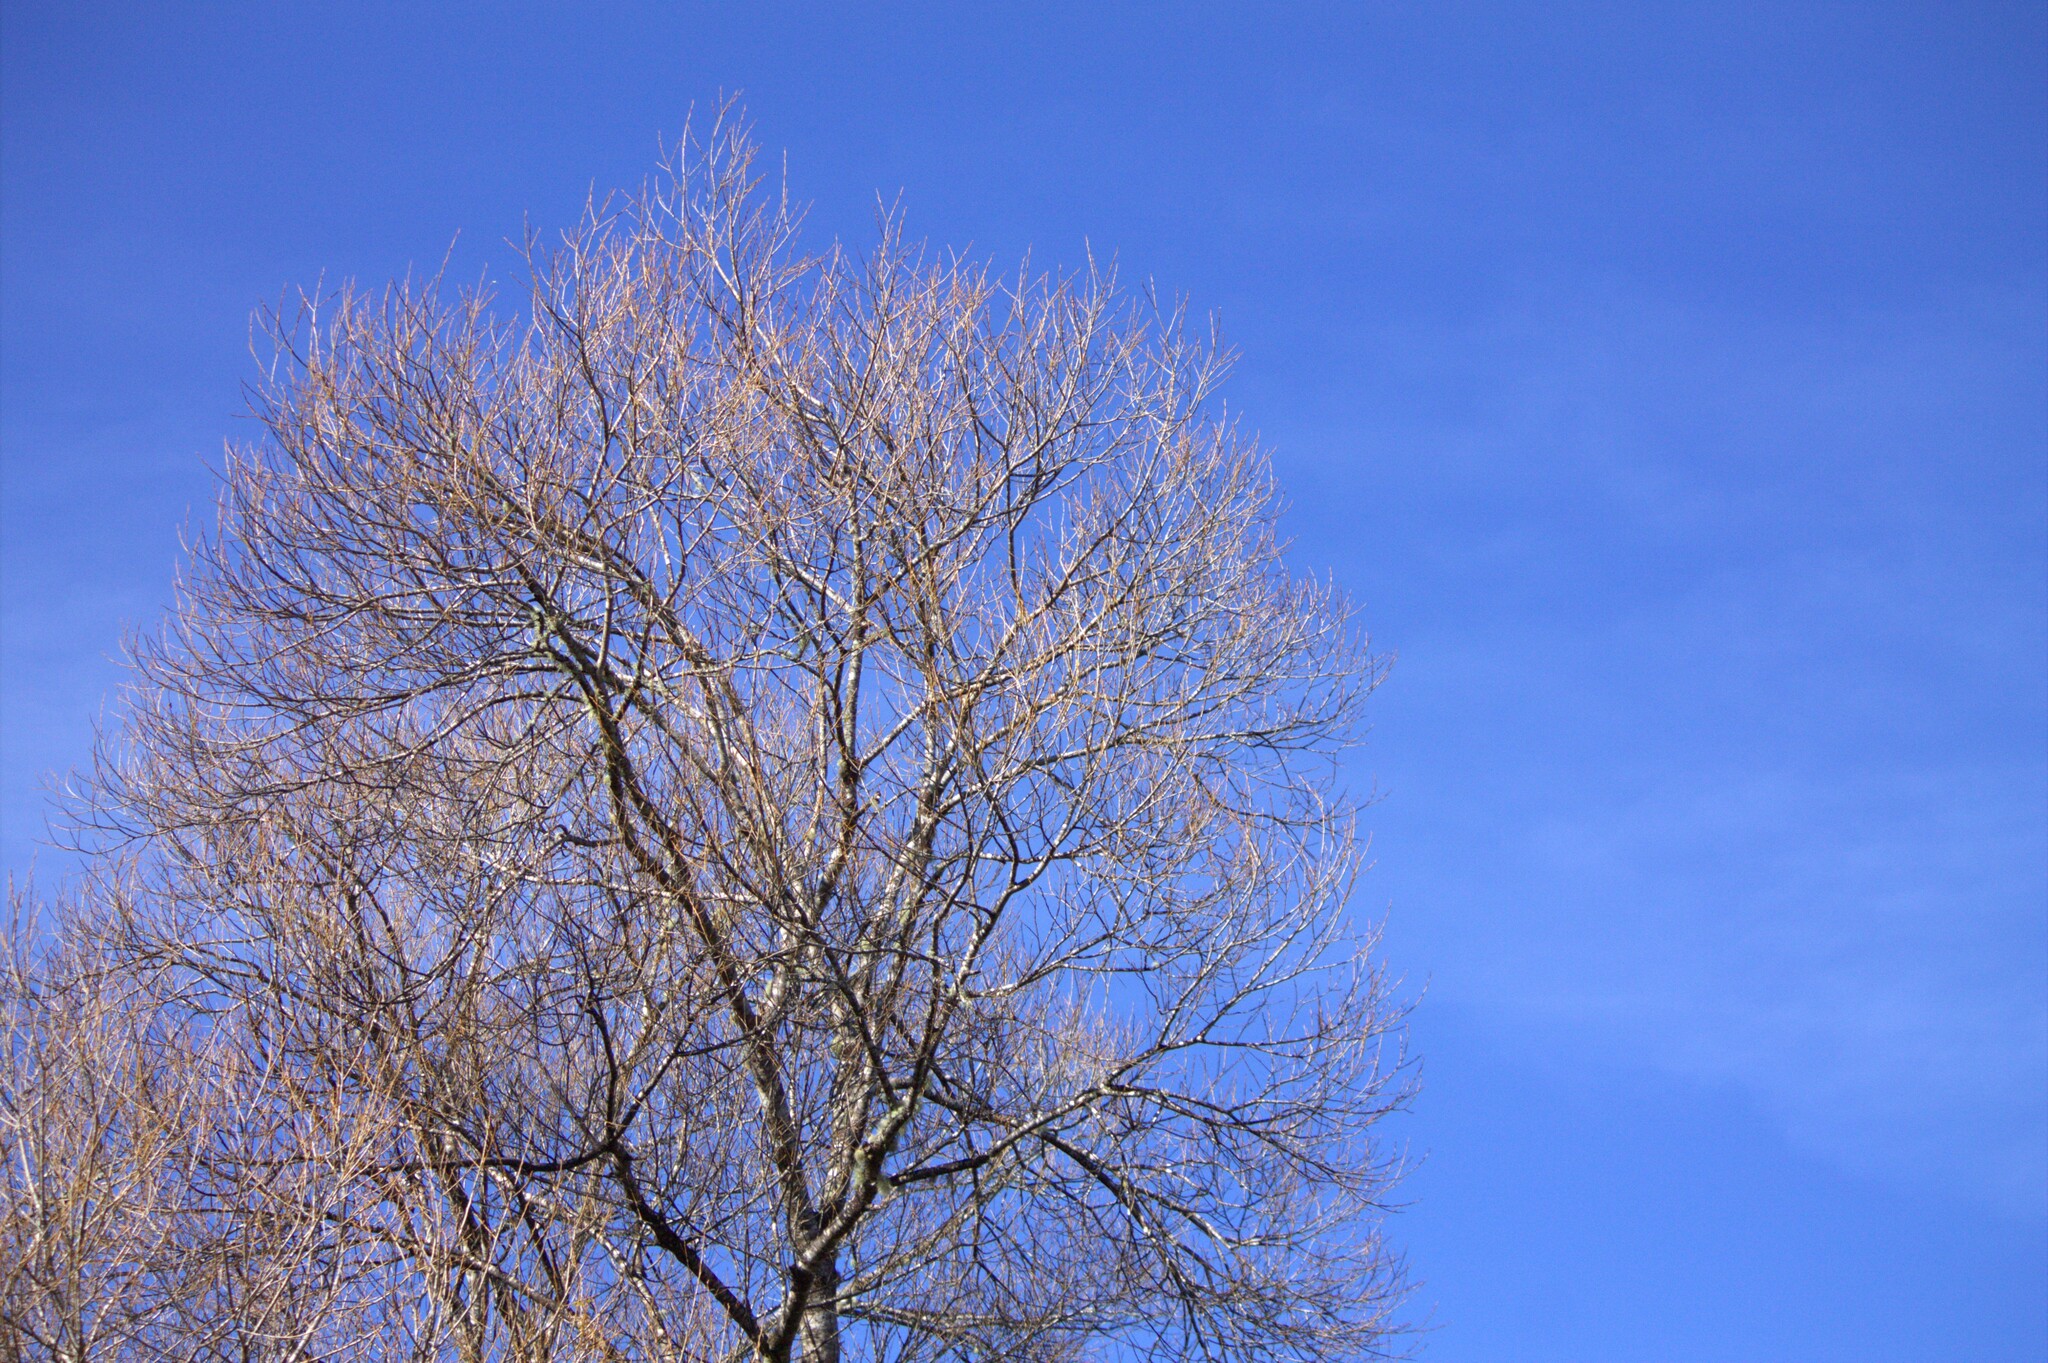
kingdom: Plantae
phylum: Tracheophyta
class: Magnoliopsida
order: Malpighiales
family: Salicaceae
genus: Salix
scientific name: Salix fragilis
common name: Crack willow
